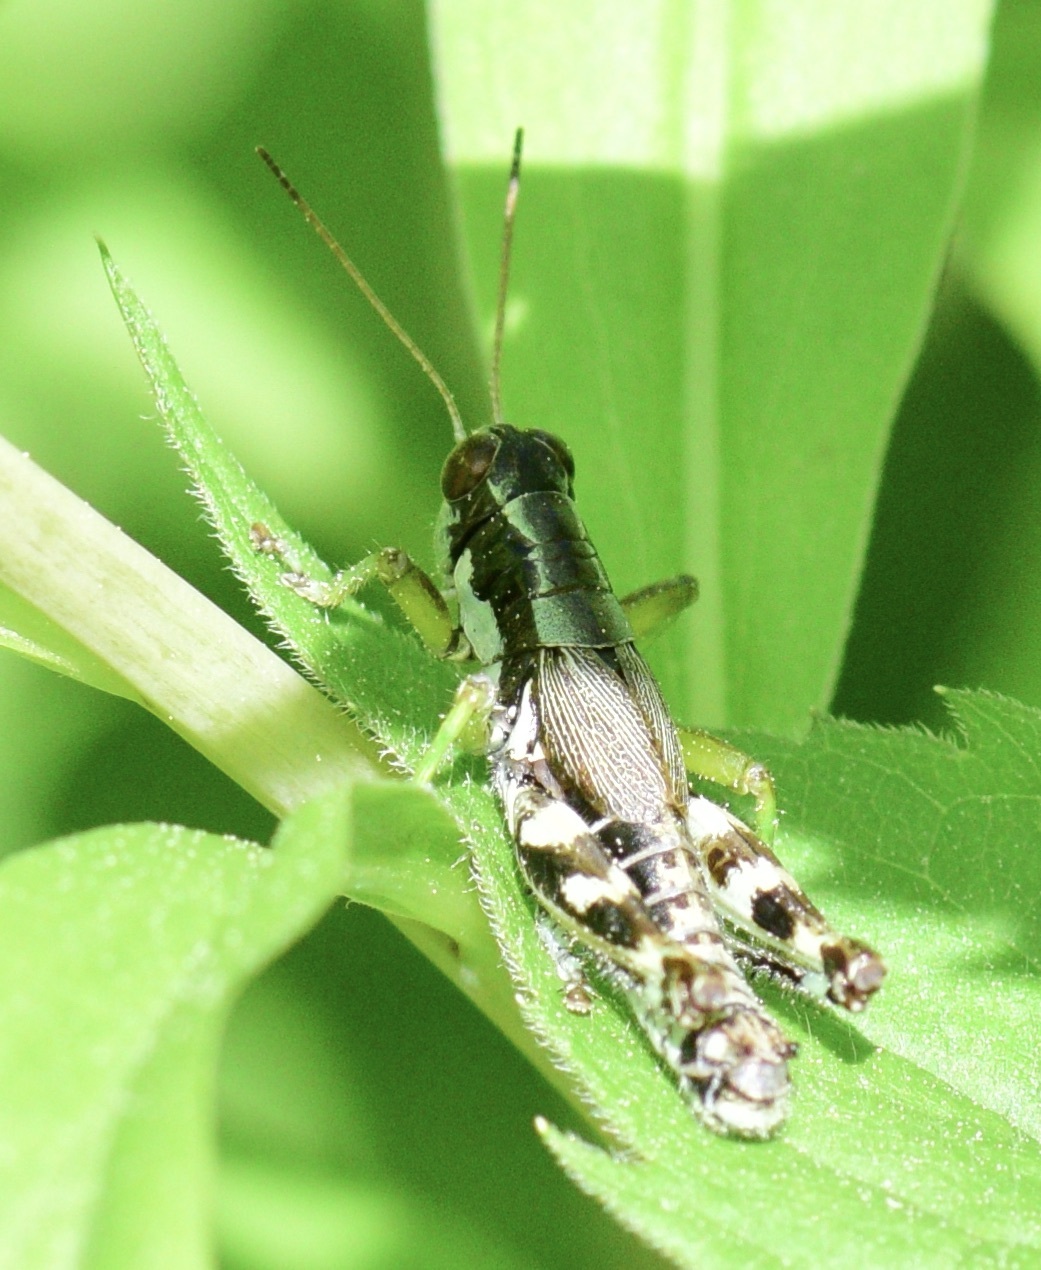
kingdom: Animalia
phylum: Arthropoda
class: Insecta
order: Orthoptera
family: Acrididae
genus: Melanoplus
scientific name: Melanoplus viridipes
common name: Green-legged locust
